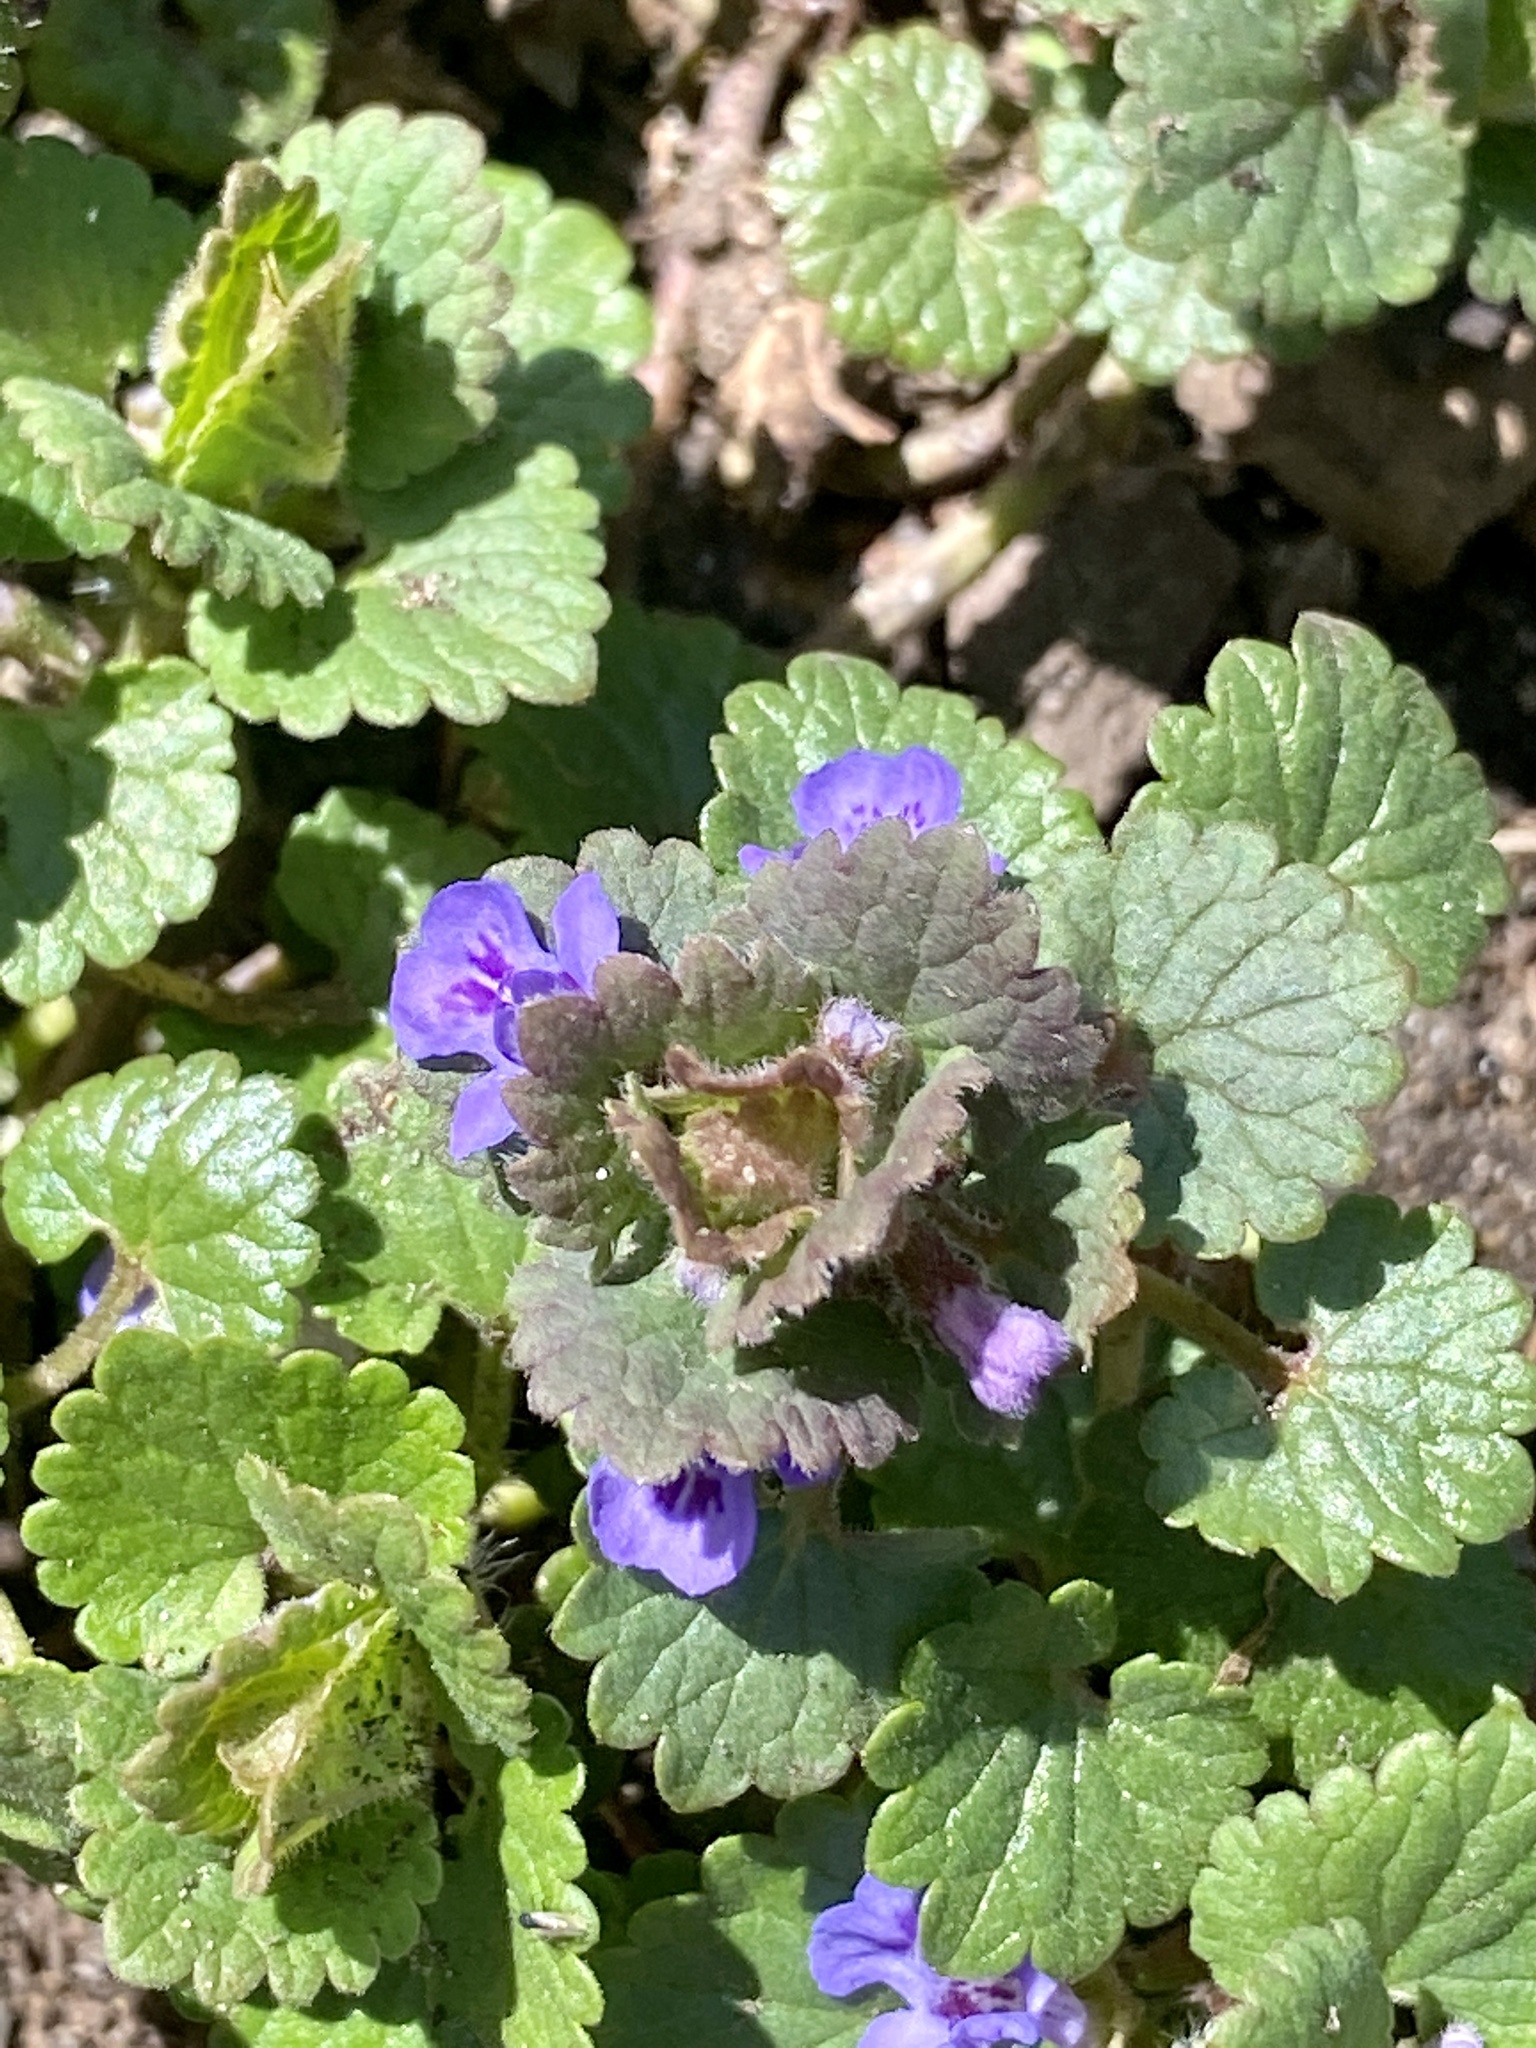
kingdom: Plantae
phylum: Tracheophyta
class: Magnoliopsida
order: Lamiales
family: Lamiaceae
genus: Glechoma
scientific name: Glechoma hederacea
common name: Ground ivy
